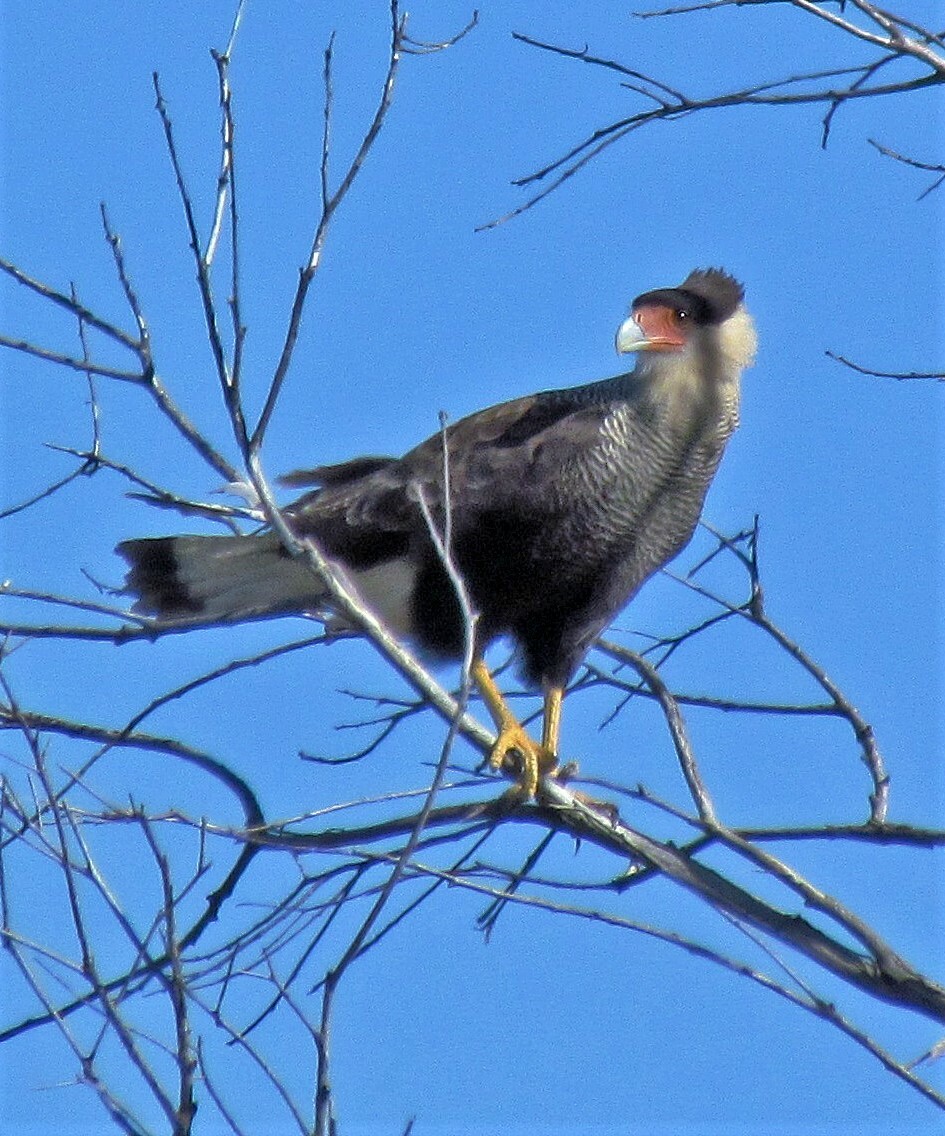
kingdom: Animalia
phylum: Chordata
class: Aves
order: Falconiformes
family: Falconidae
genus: Caracara
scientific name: Caracara plancus
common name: Southern caracara
